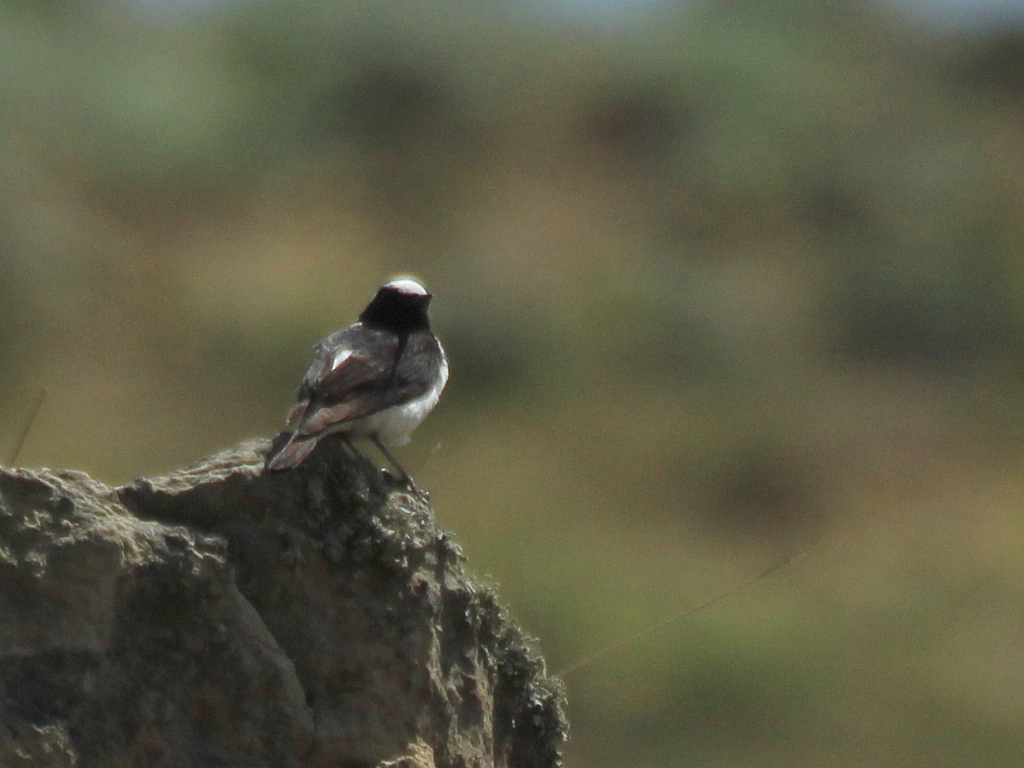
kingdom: Animalia
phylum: Chordata
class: Aves
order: Passeriformes
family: Muscicapidae
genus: Oenanthe
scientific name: Oenanthe pleschanka
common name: Pied wheatear
